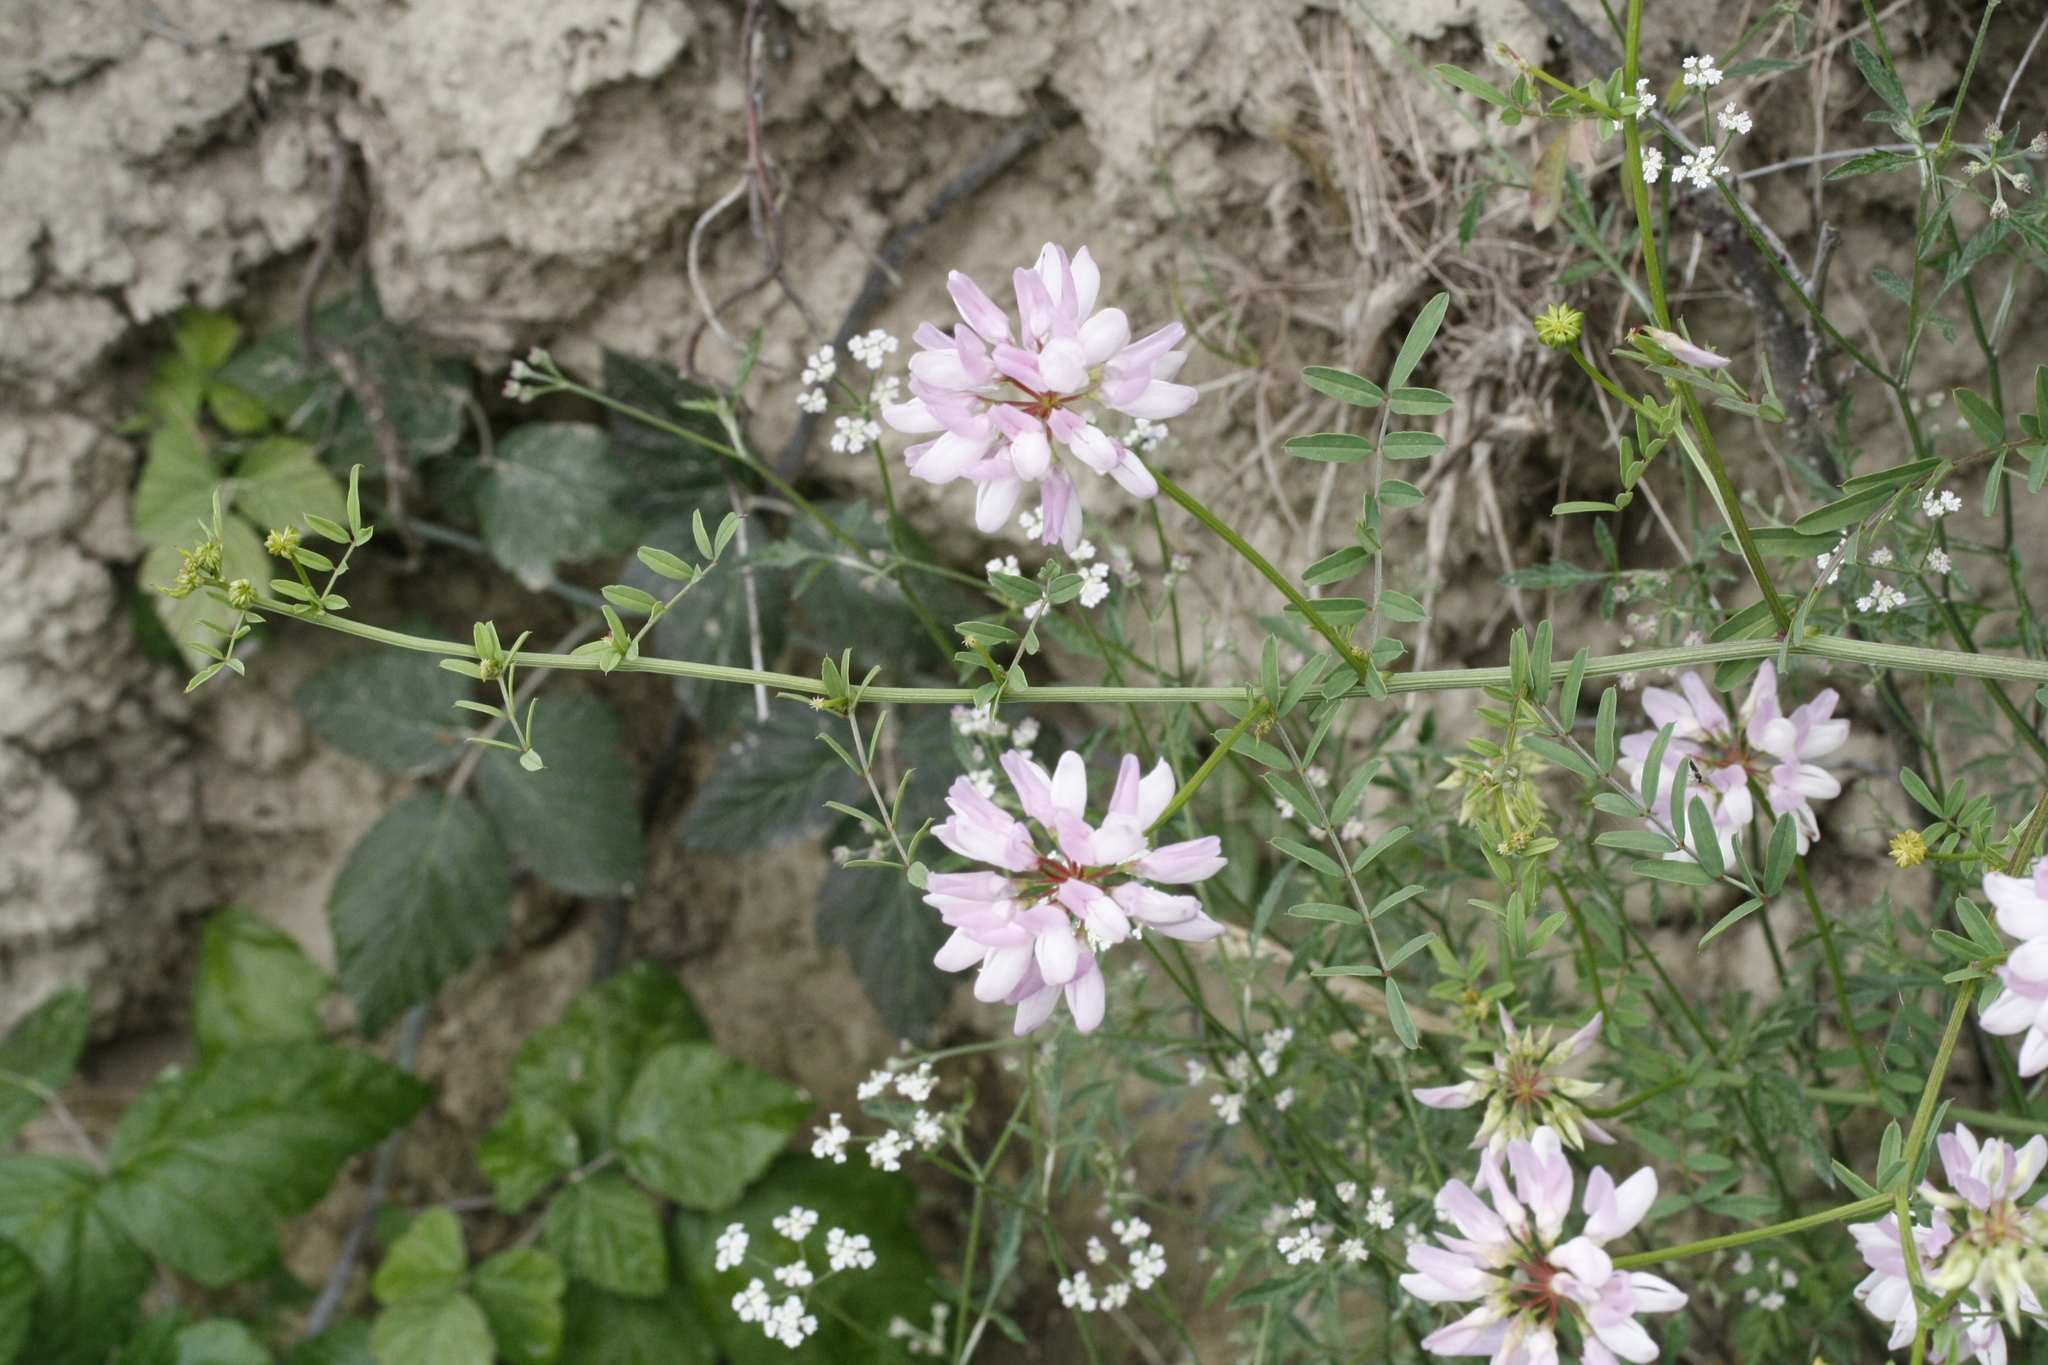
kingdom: Plantae
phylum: Tracheophyta
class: Magnoliopsida
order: Fabales
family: Fabaceae
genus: Coronilla
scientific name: Coronilla varia
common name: Crownvetch
